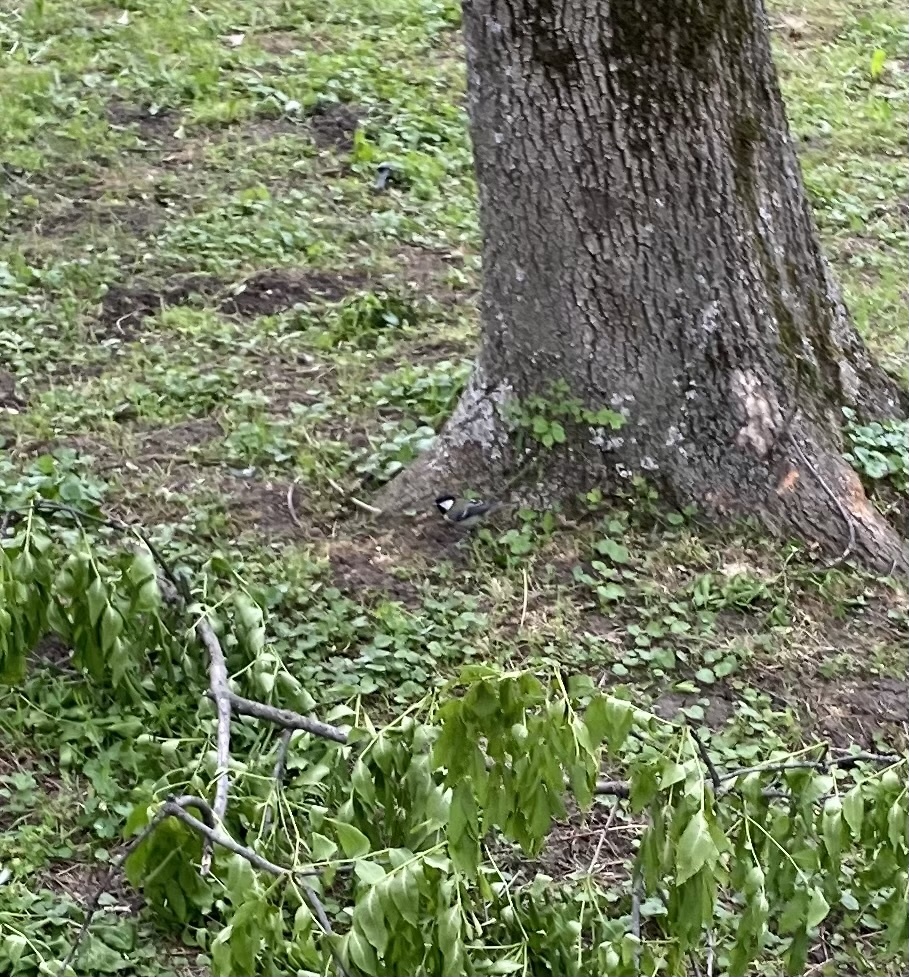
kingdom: Animalia
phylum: Chordata
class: Aves
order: Passeriformes
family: Paridae
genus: Parus
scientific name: Parus major
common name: Great tit
